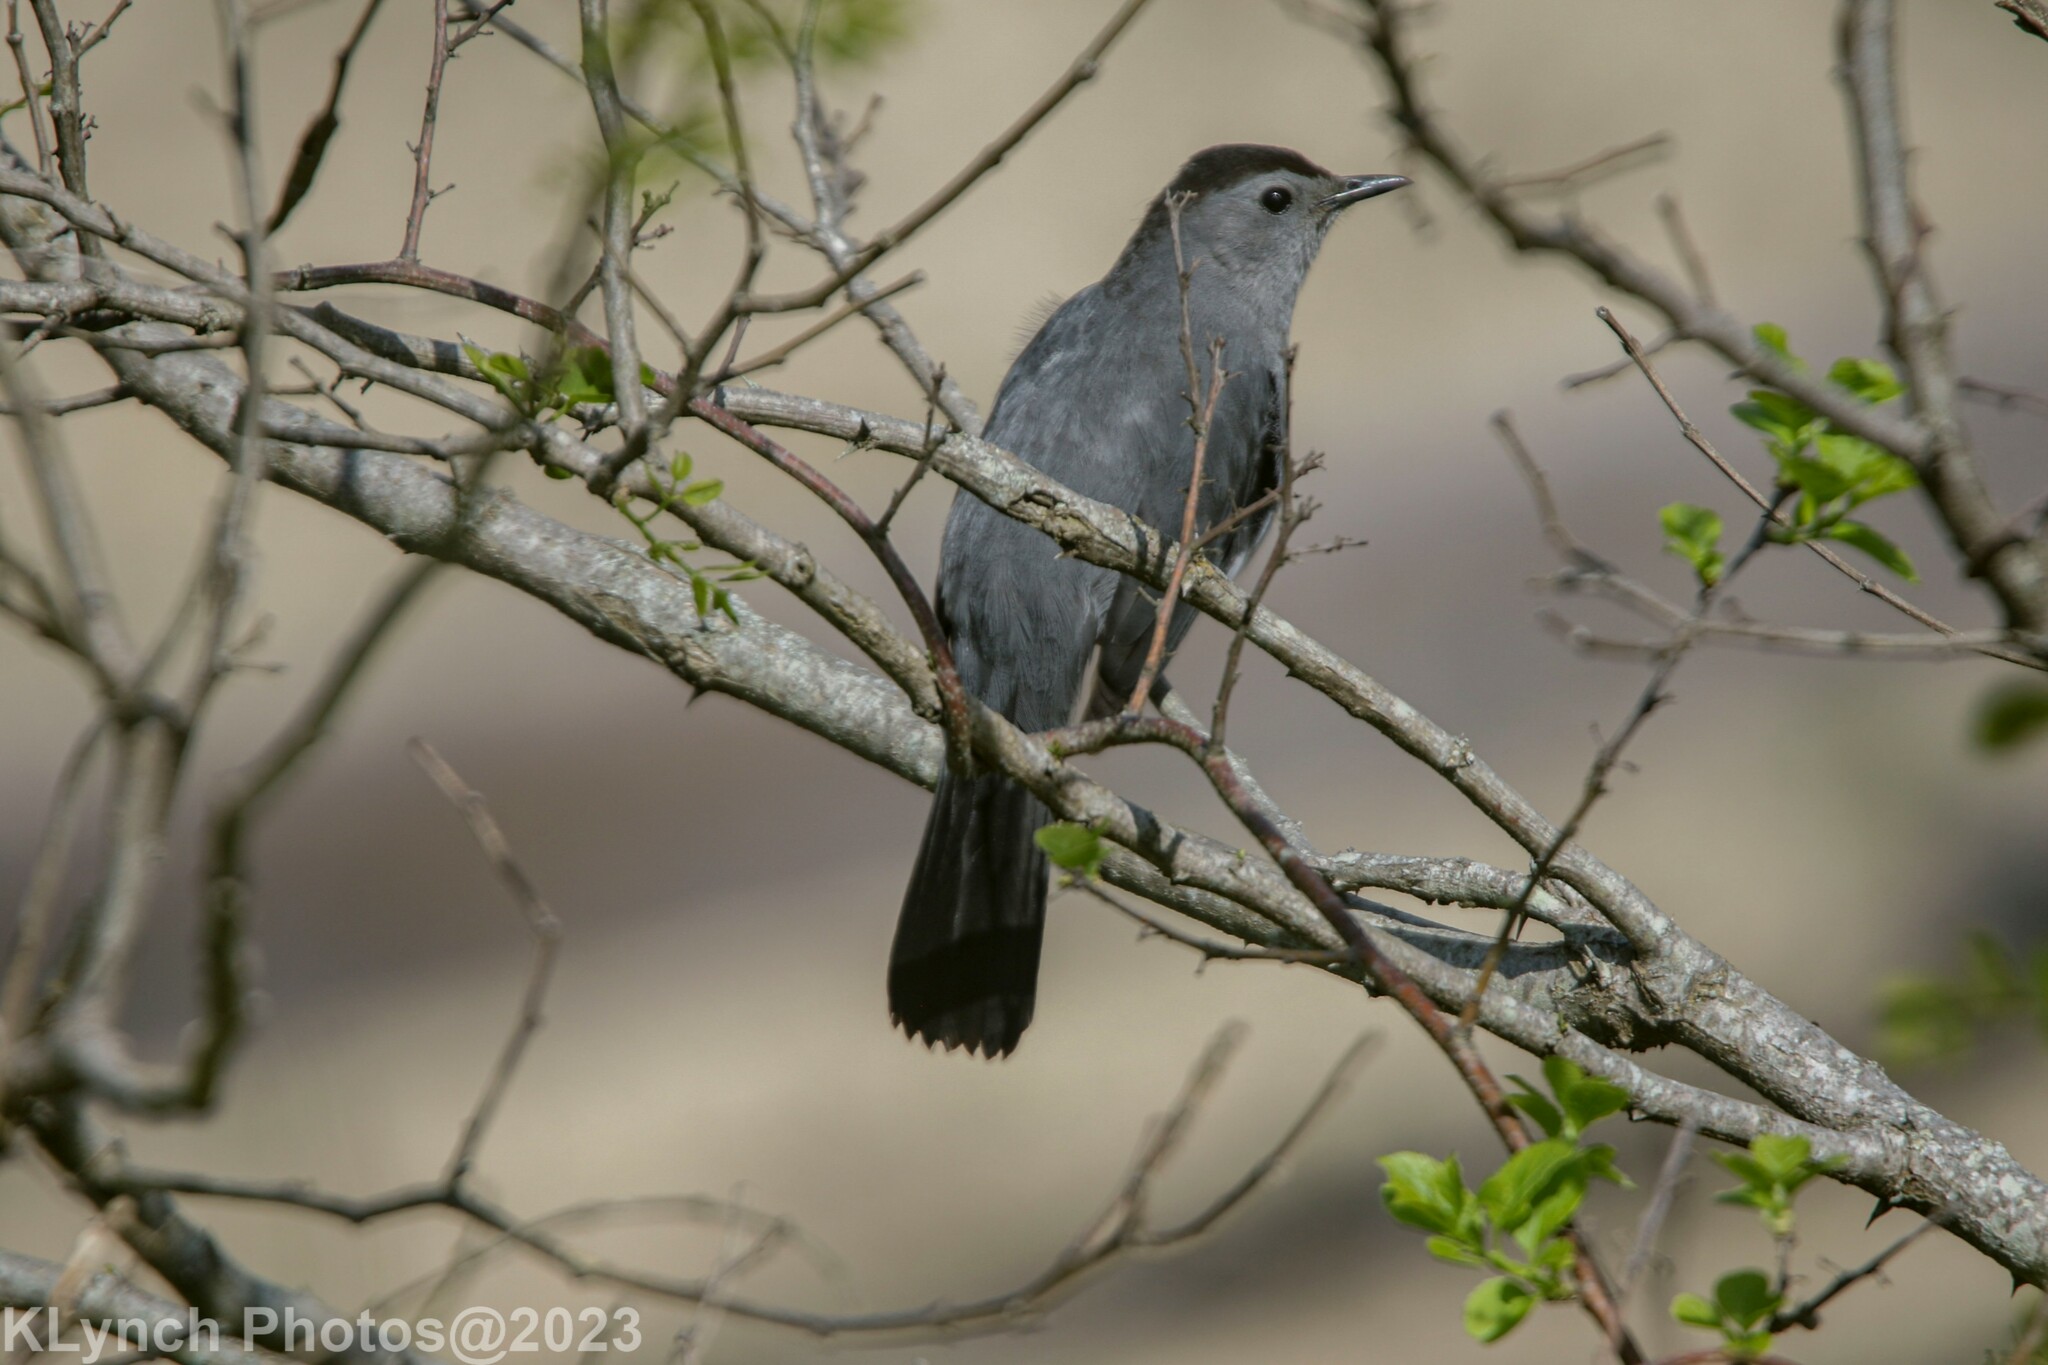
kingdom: Animalia
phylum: Chordata
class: Aves
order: Passeriformes
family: Mimidae
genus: Dumetella
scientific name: Dumetella carolinensis
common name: Gray catbird
